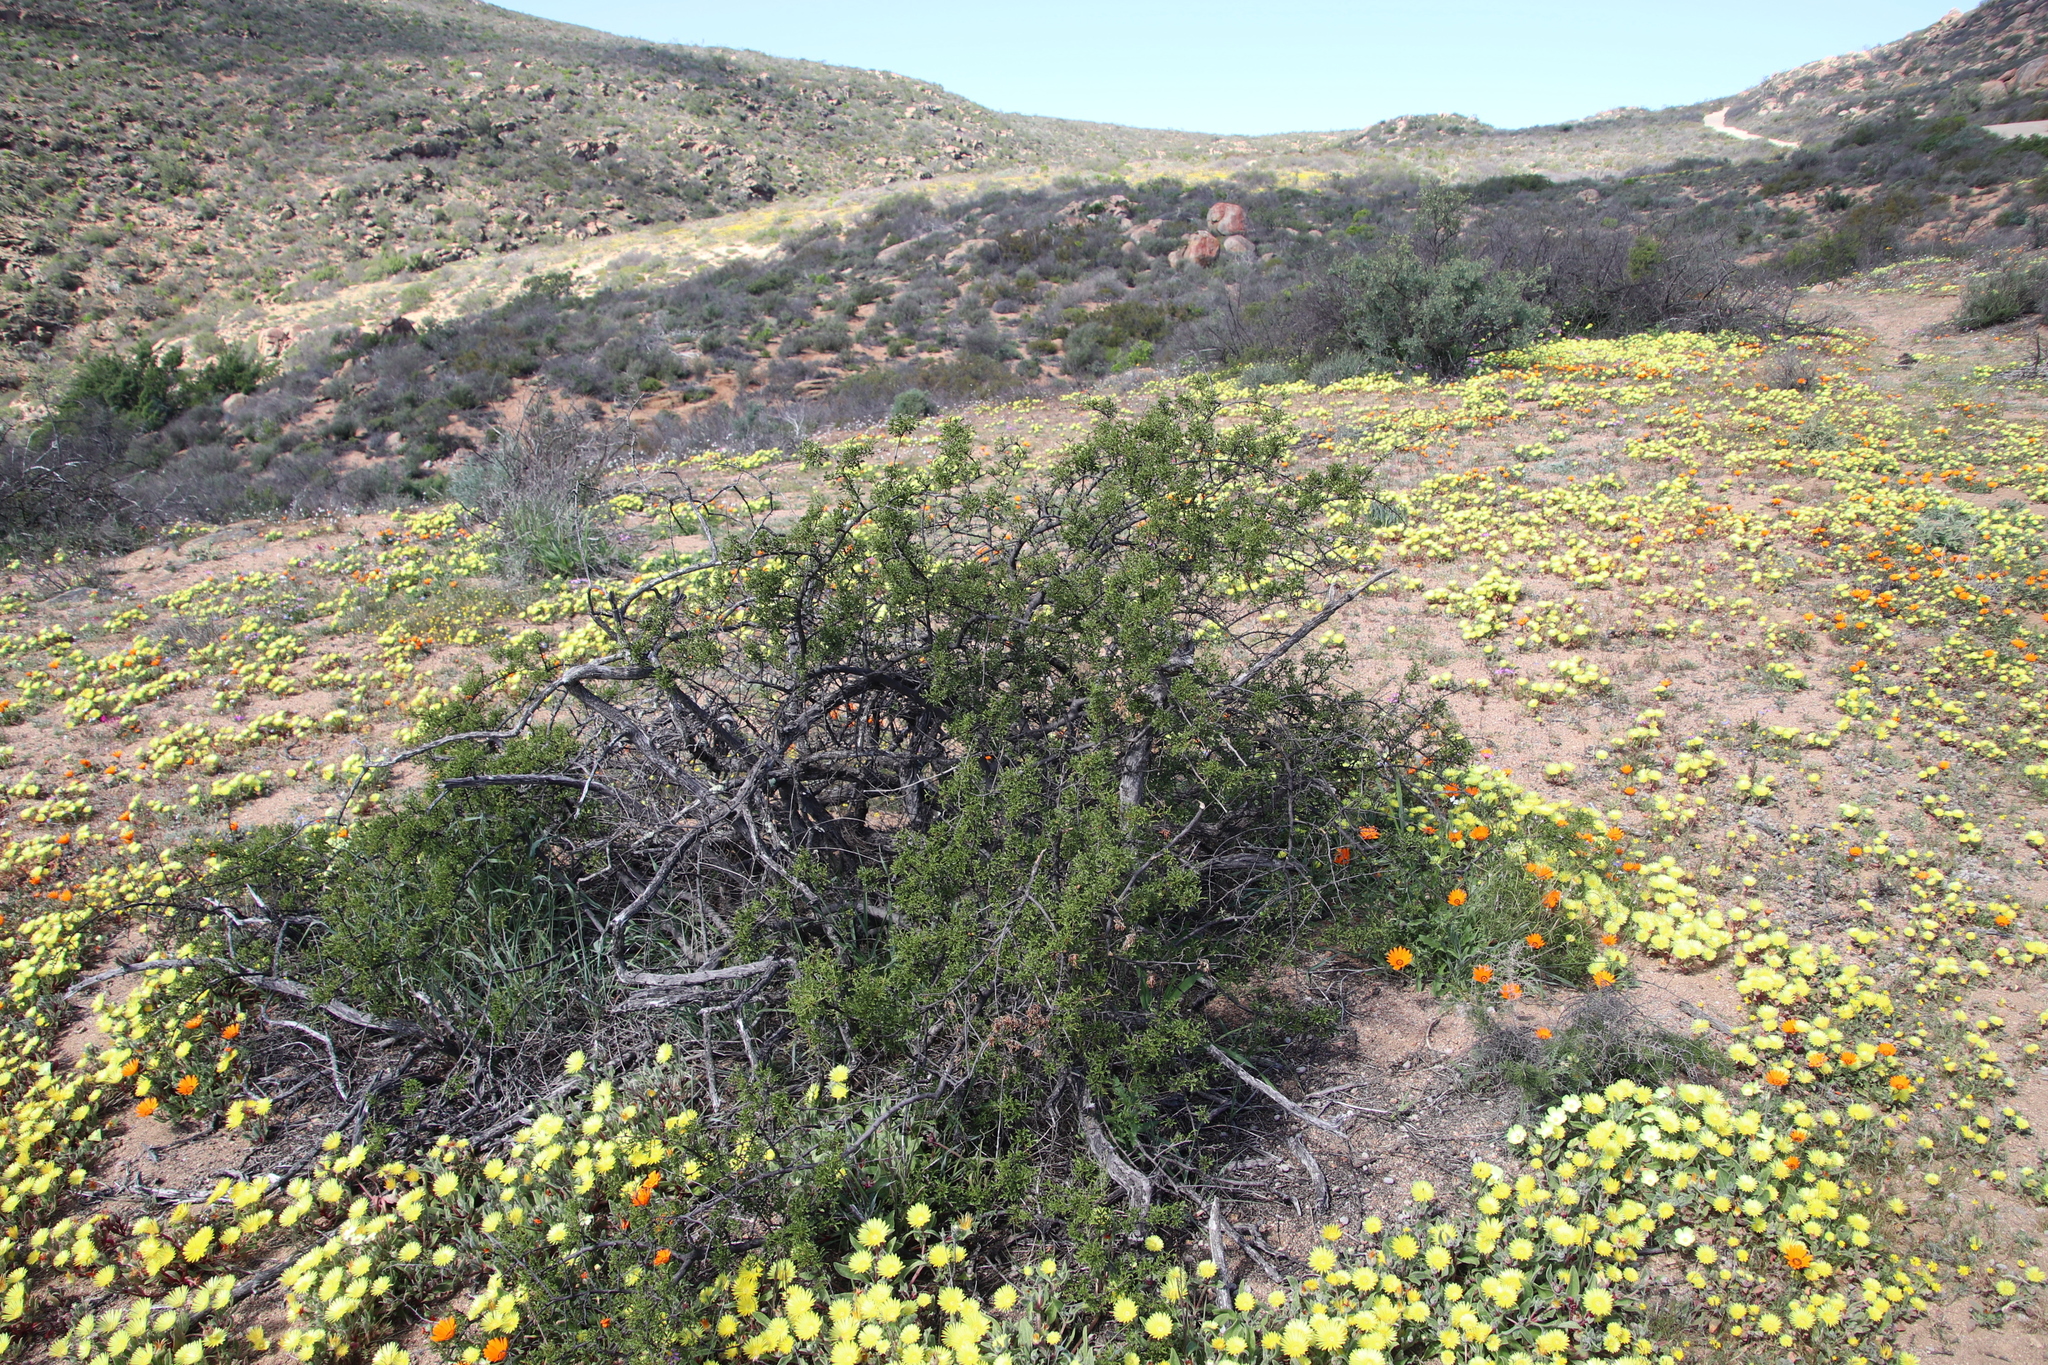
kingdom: Plantae
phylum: Tracheophyta
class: Magnoliopsida
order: Sapindales
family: Anacardiaceae
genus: Searsia
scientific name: Searsia undulata
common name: Namaqua kunibush
